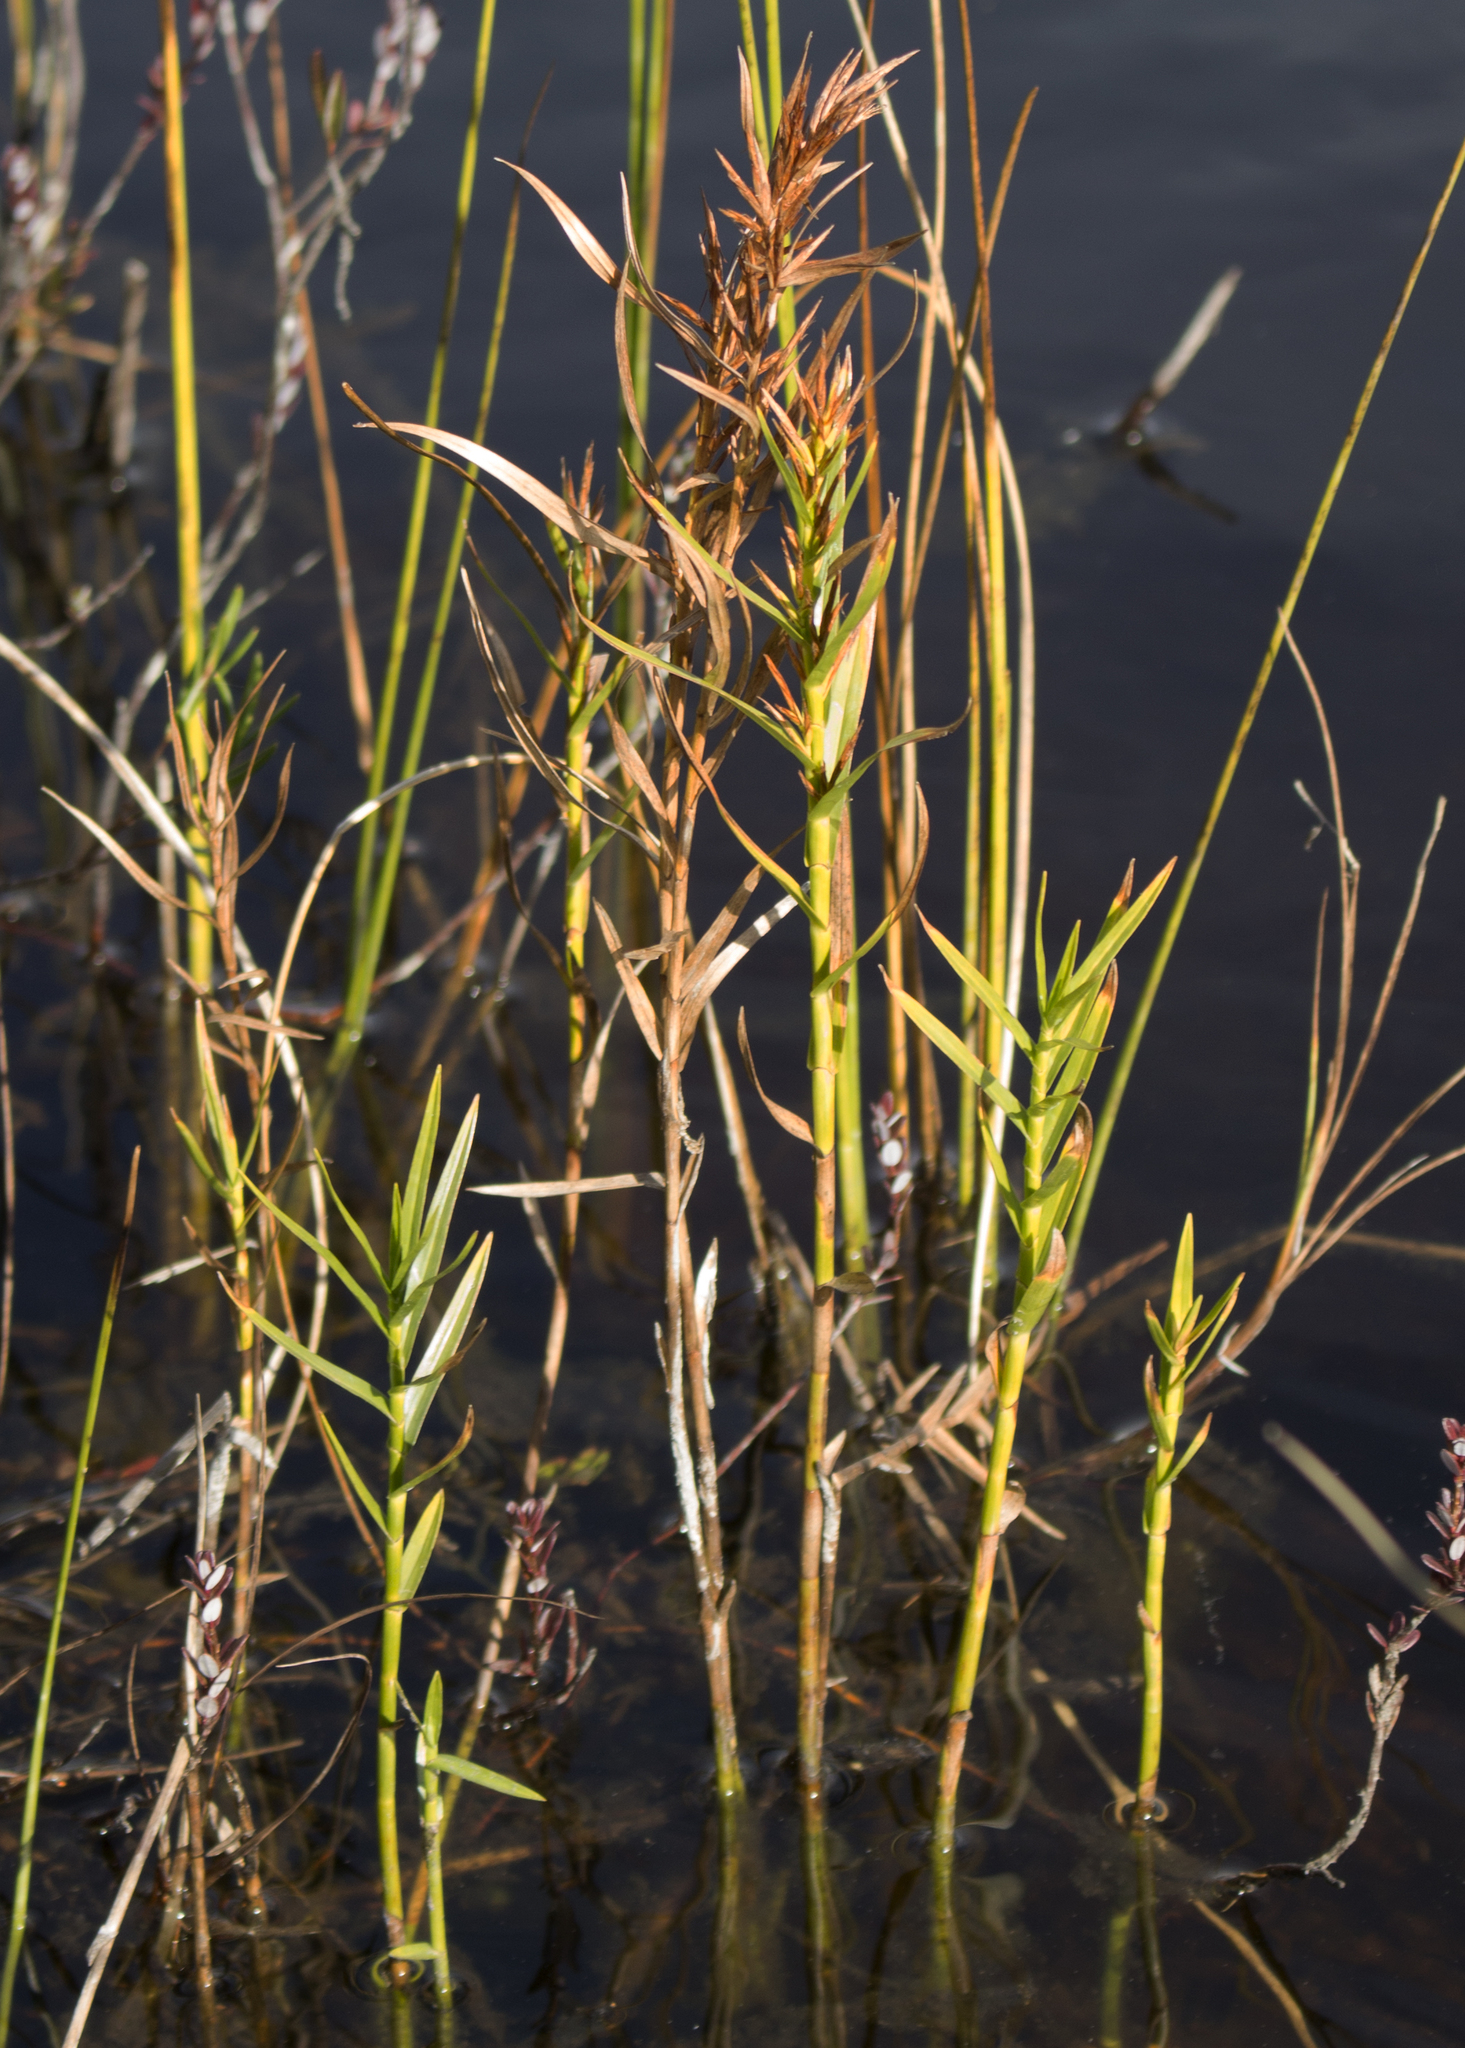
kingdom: Plantae
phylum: Tracheophyta
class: Liliopsida
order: Poales
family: Cyperaceae
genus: Dulichium
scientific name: Dulichium arundinaceum
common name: Three-way sedge
